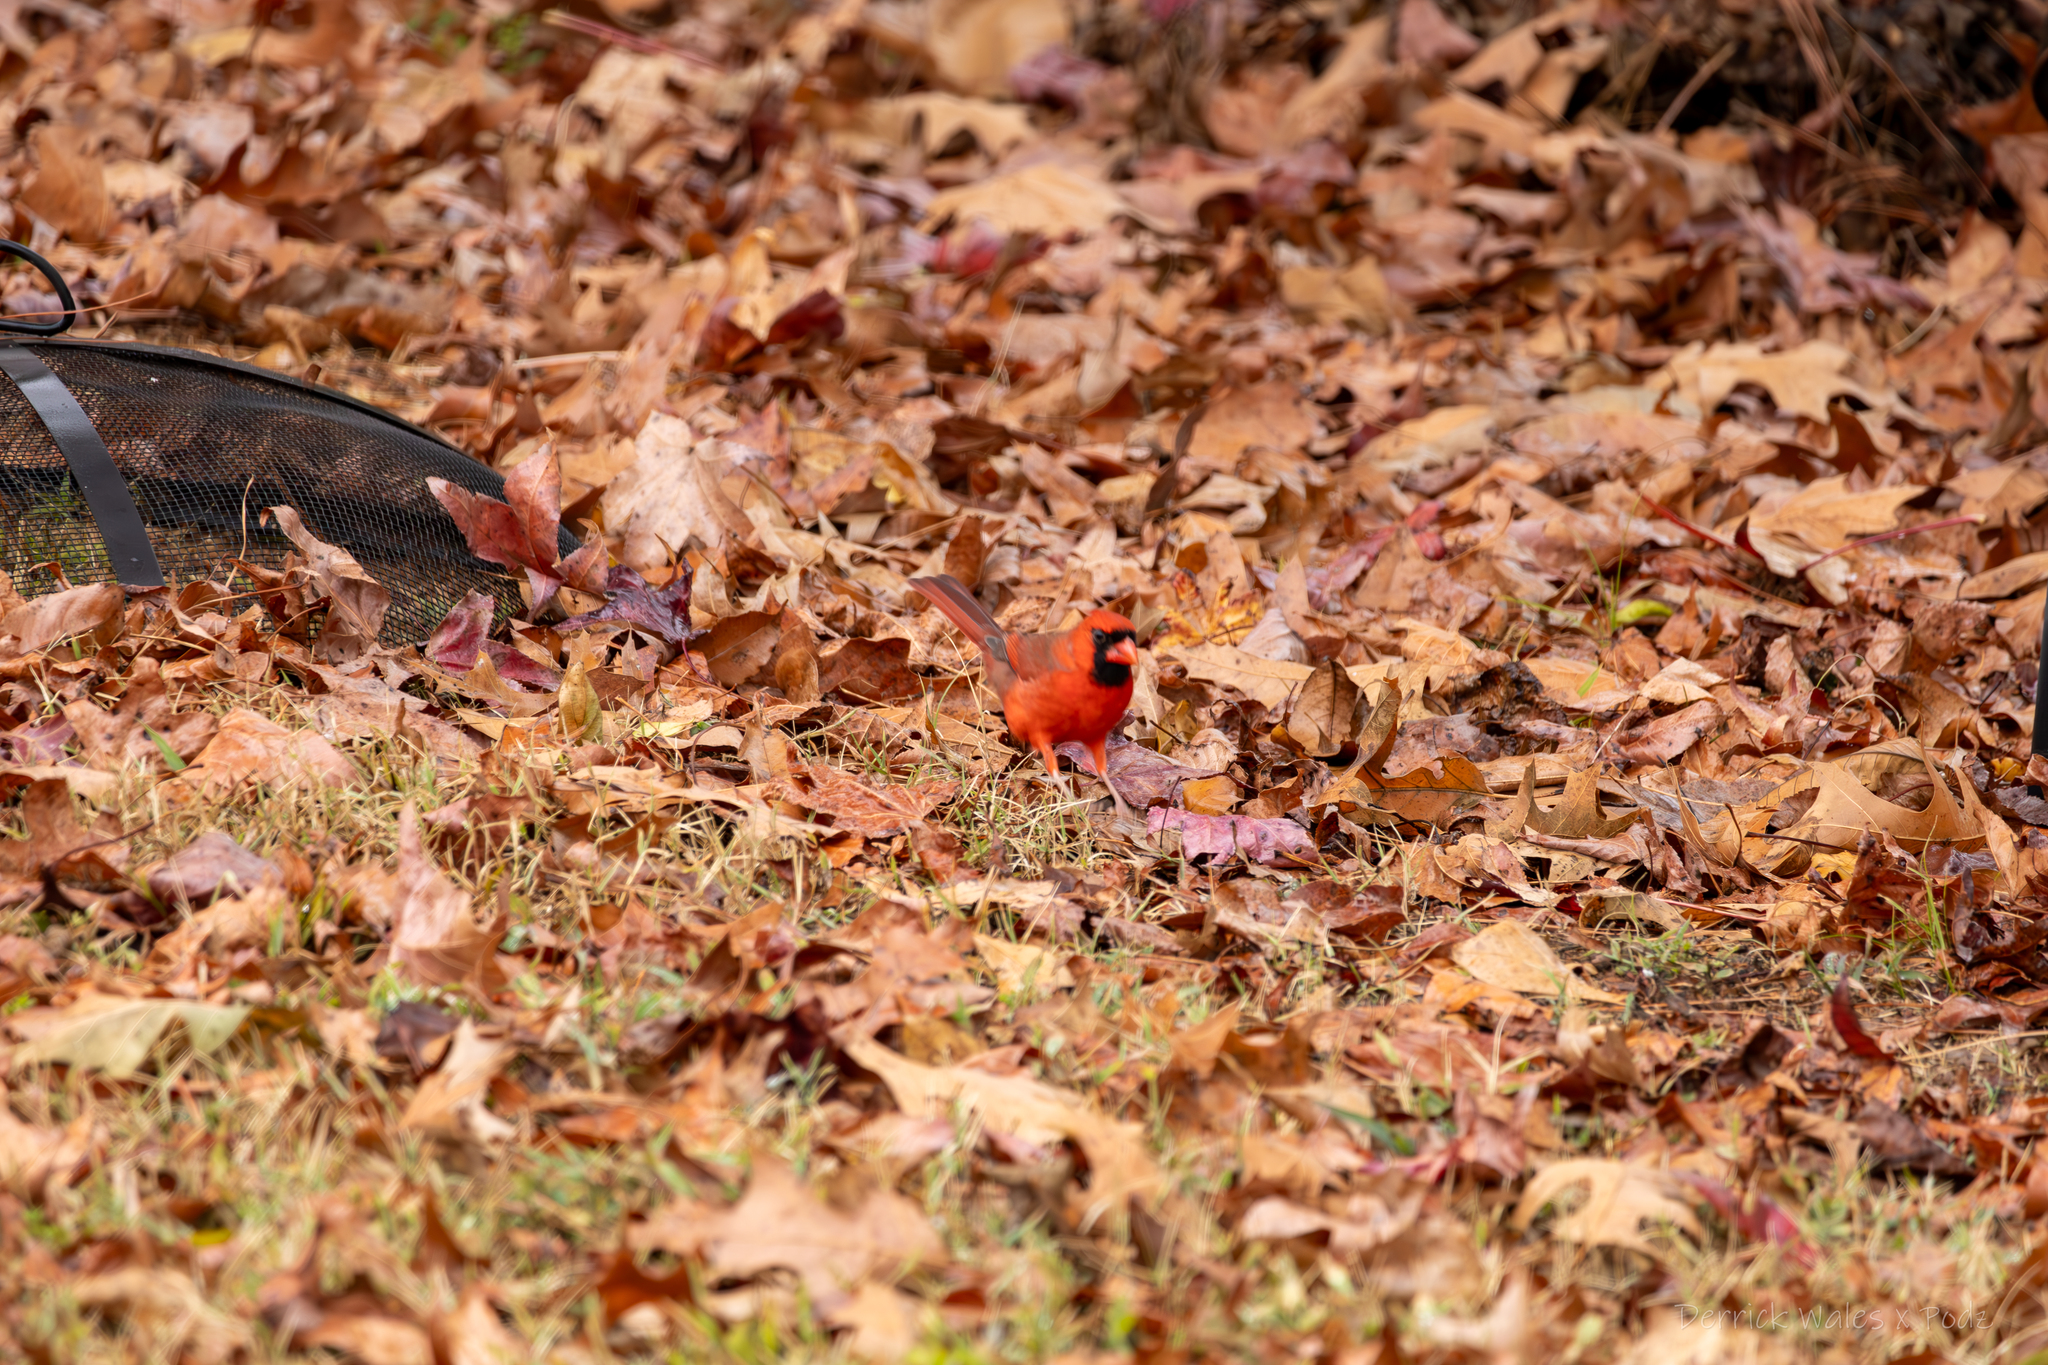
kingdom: Animalia
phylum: Chordata
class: Aves
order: Passeriformes
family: Cardinalidae
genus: Cardinalis
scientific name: Cardinalis cardinalis
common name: Northern cardinal
